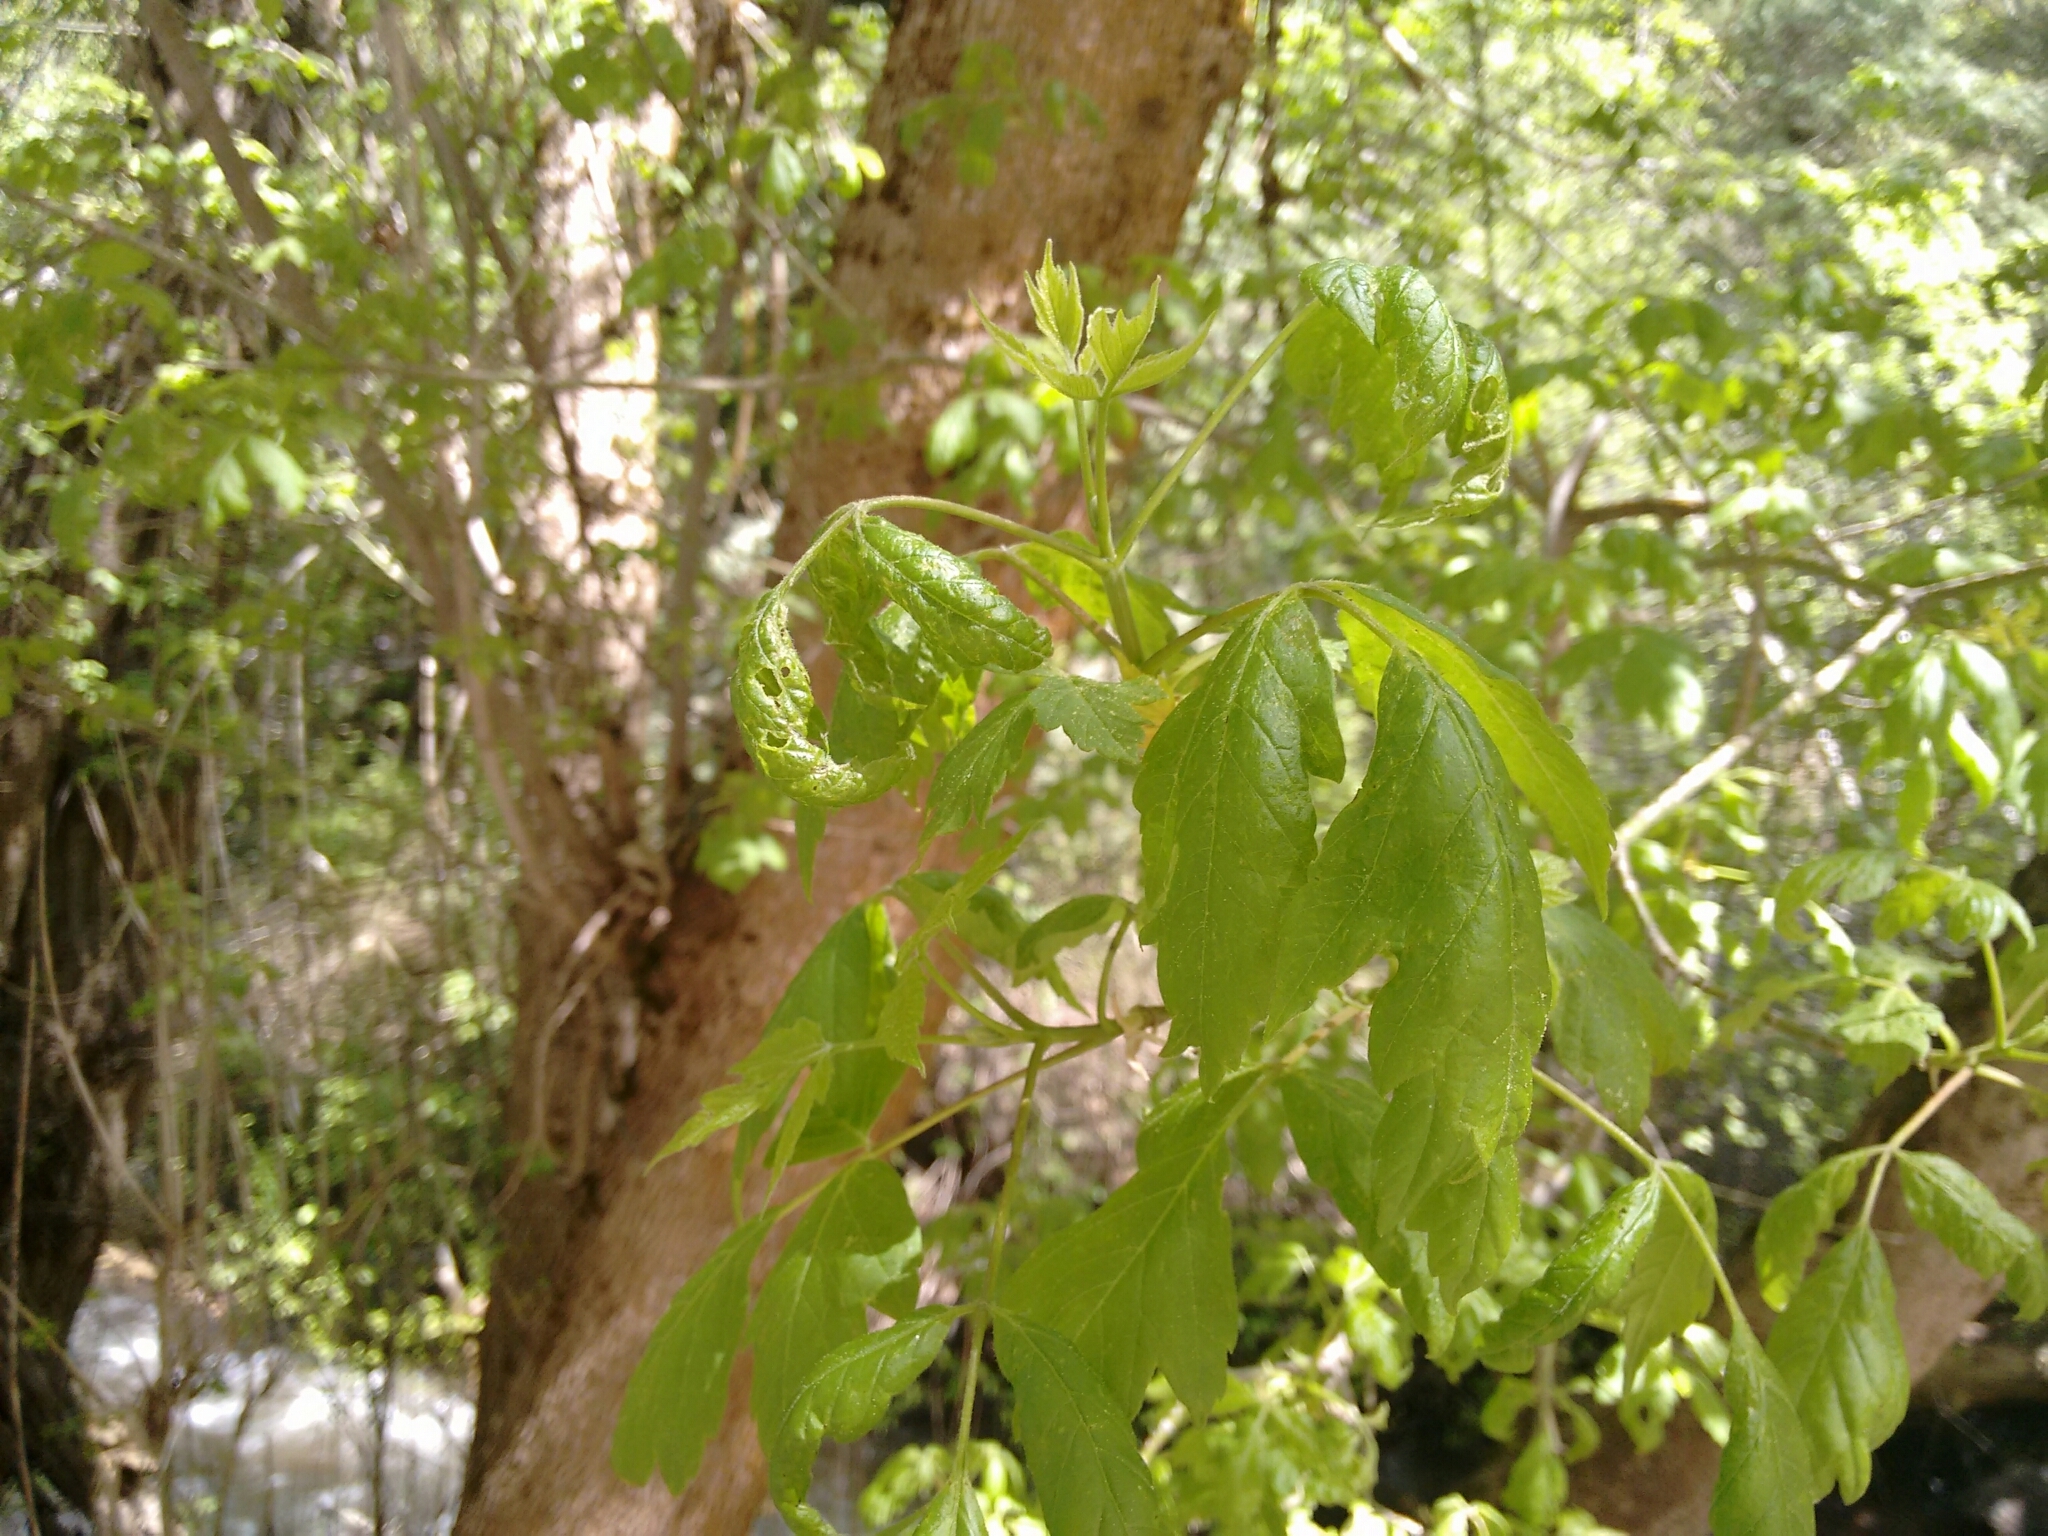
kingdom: Plantae
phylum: Tracheophyta
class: Magnoliopsida
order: Sapindales
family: Sapindaceae
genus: Acer
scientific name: Acer negundo
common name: Ashleaf maple
